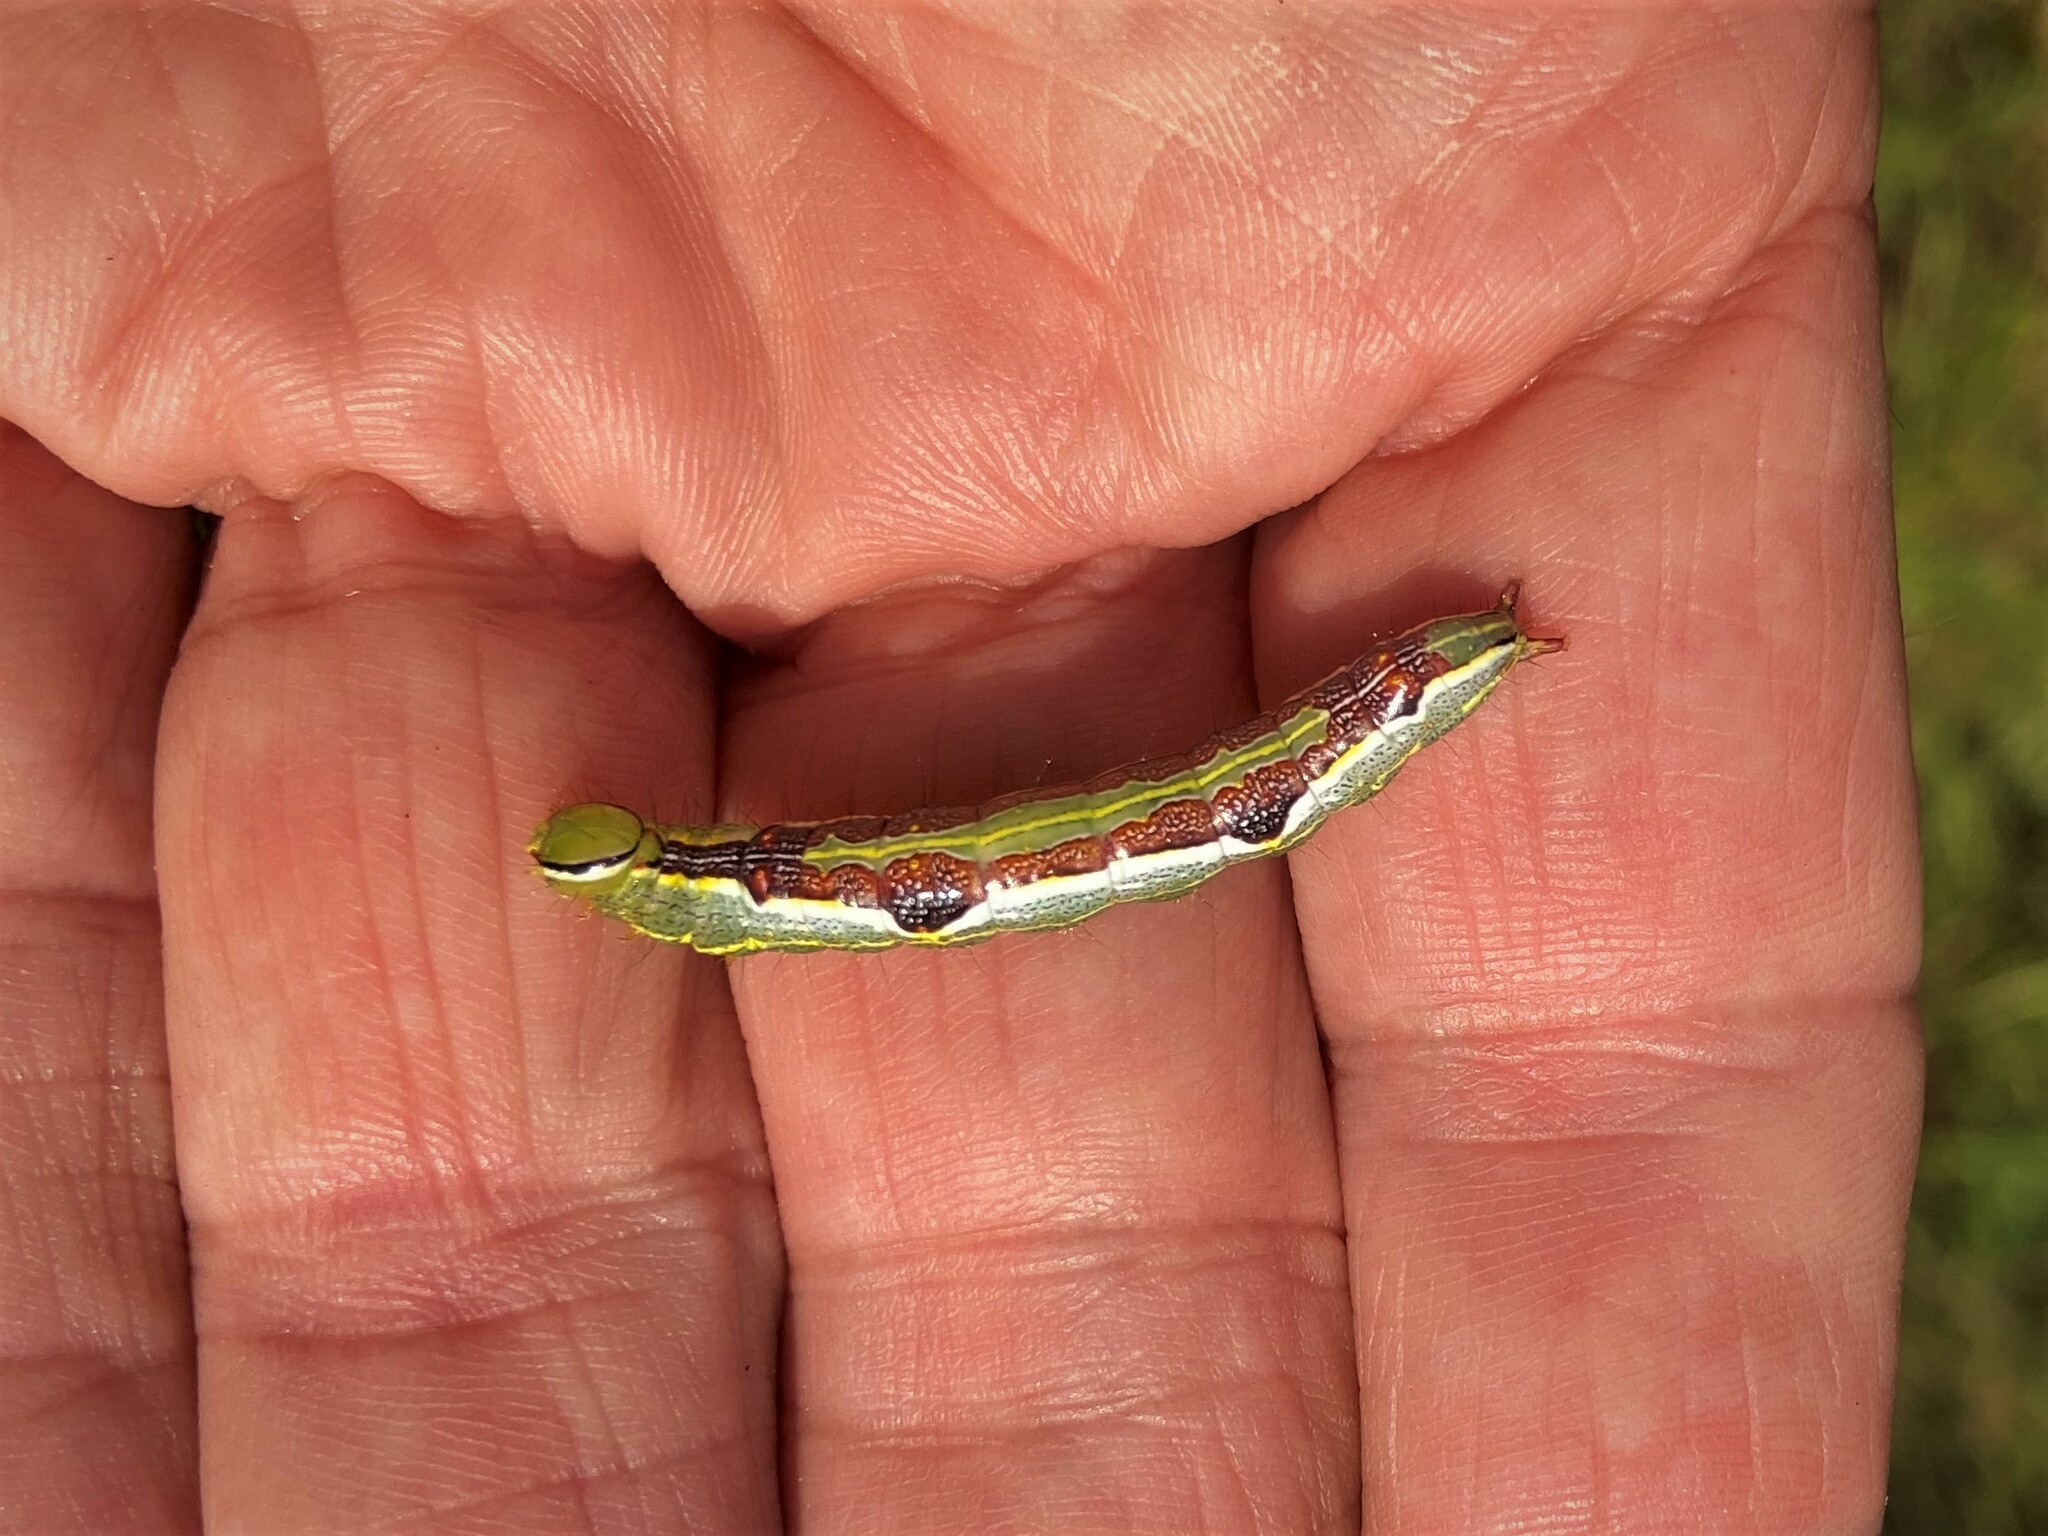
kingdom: Animalia
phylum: Arthropoda
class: Insecta
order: Lepidoptera
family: Notodontidae
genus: Lochmaeus
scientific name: Lochmaeus bilineata
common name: Double-lined prominent
